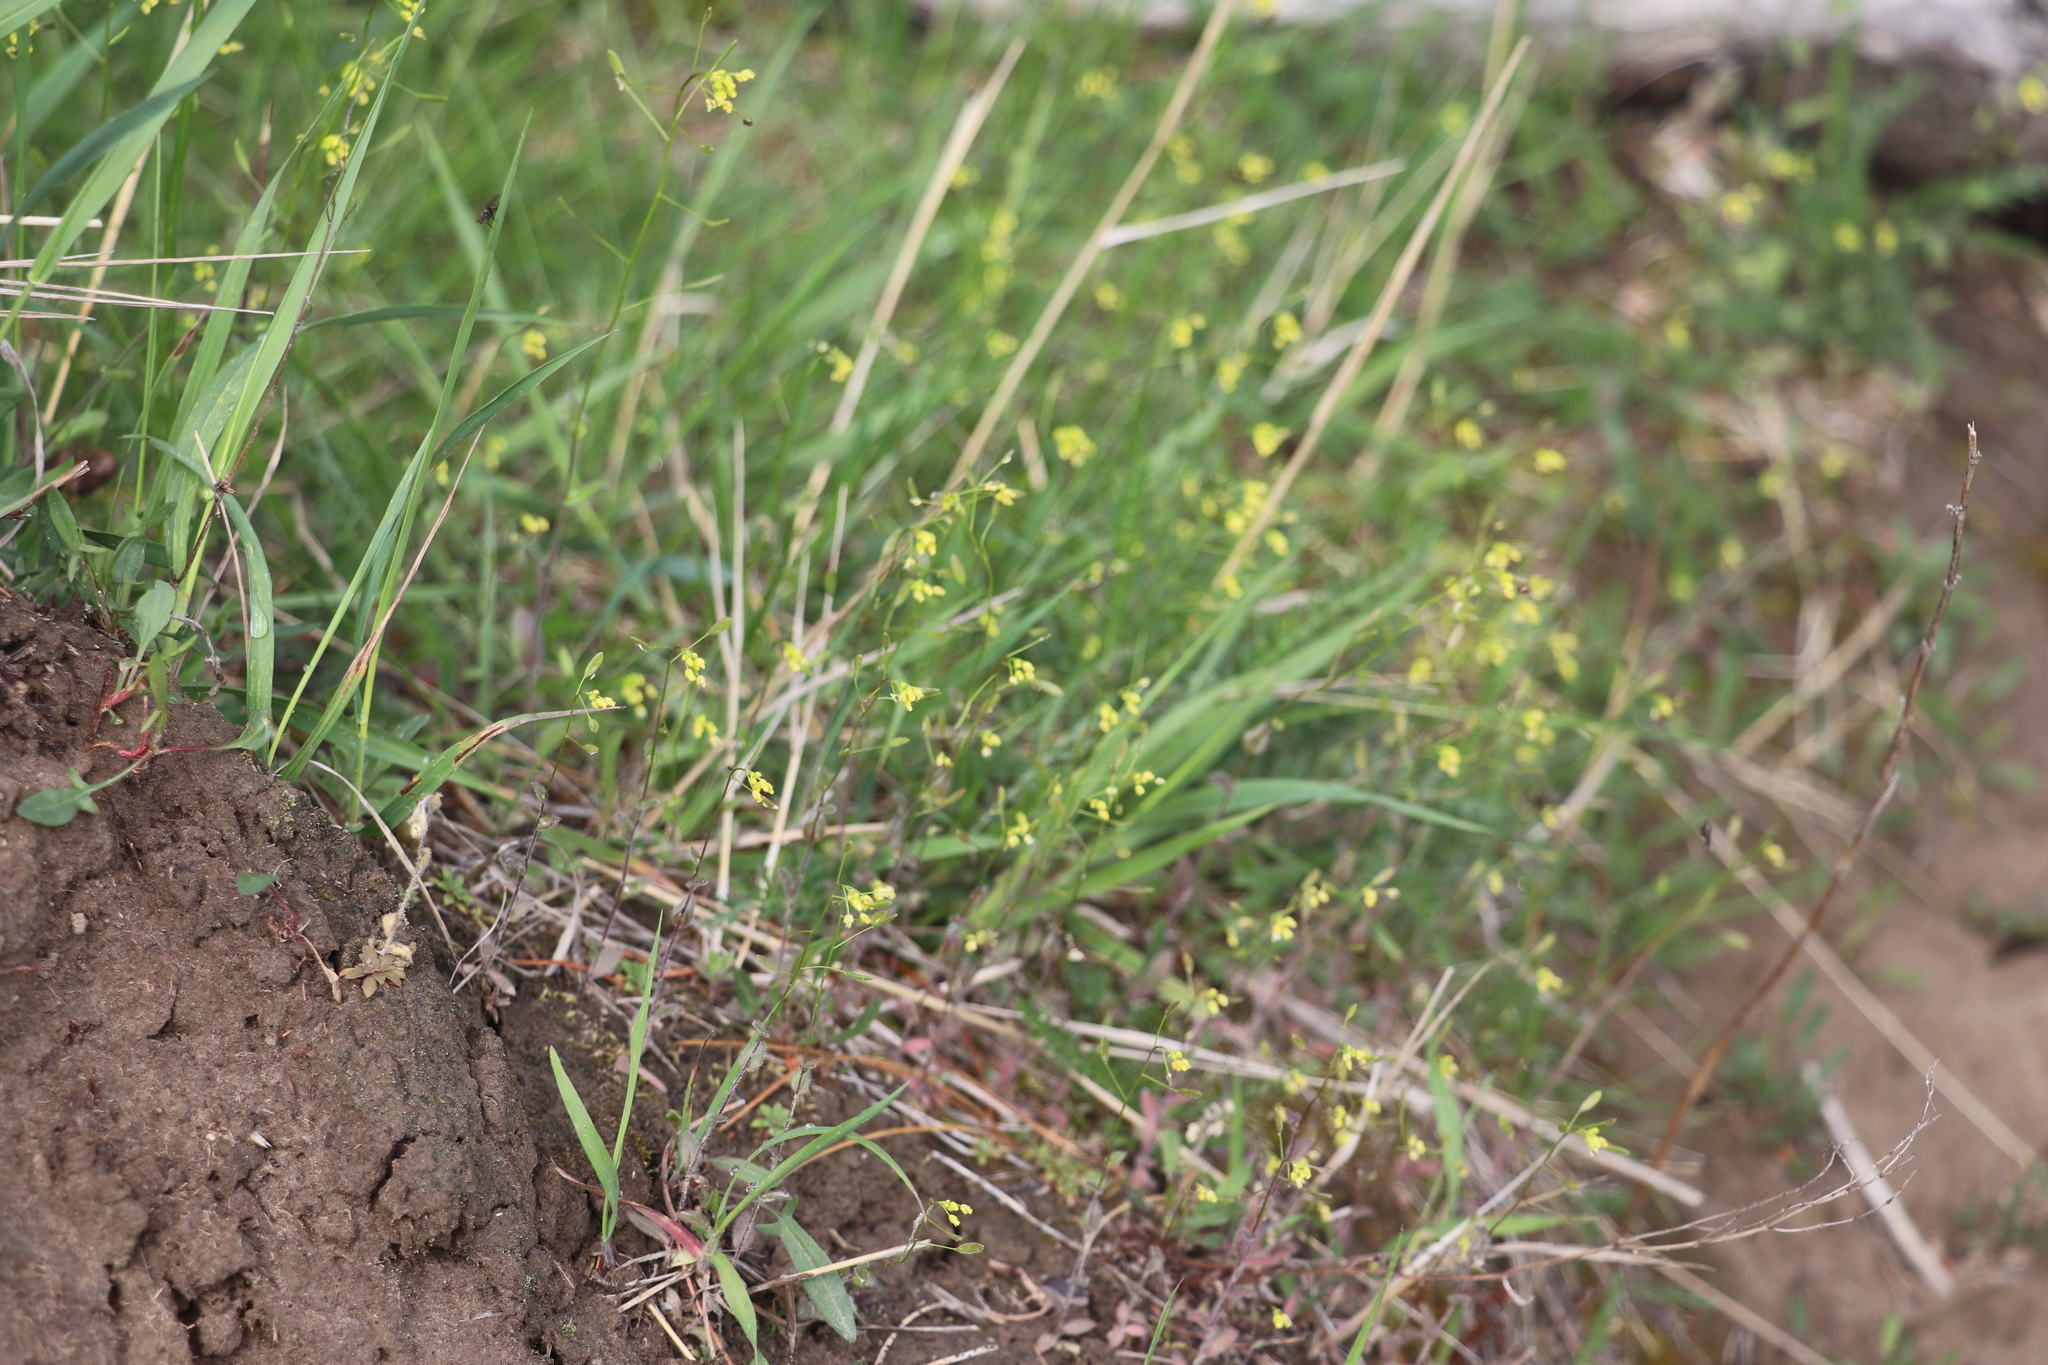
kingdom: Plantae
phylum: Tracheophyta
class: Magnoliopsida
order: Brassicales
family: Brassicaceae
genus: Draba
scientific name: Draba nemorosa
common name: Wood whitlow-grass
